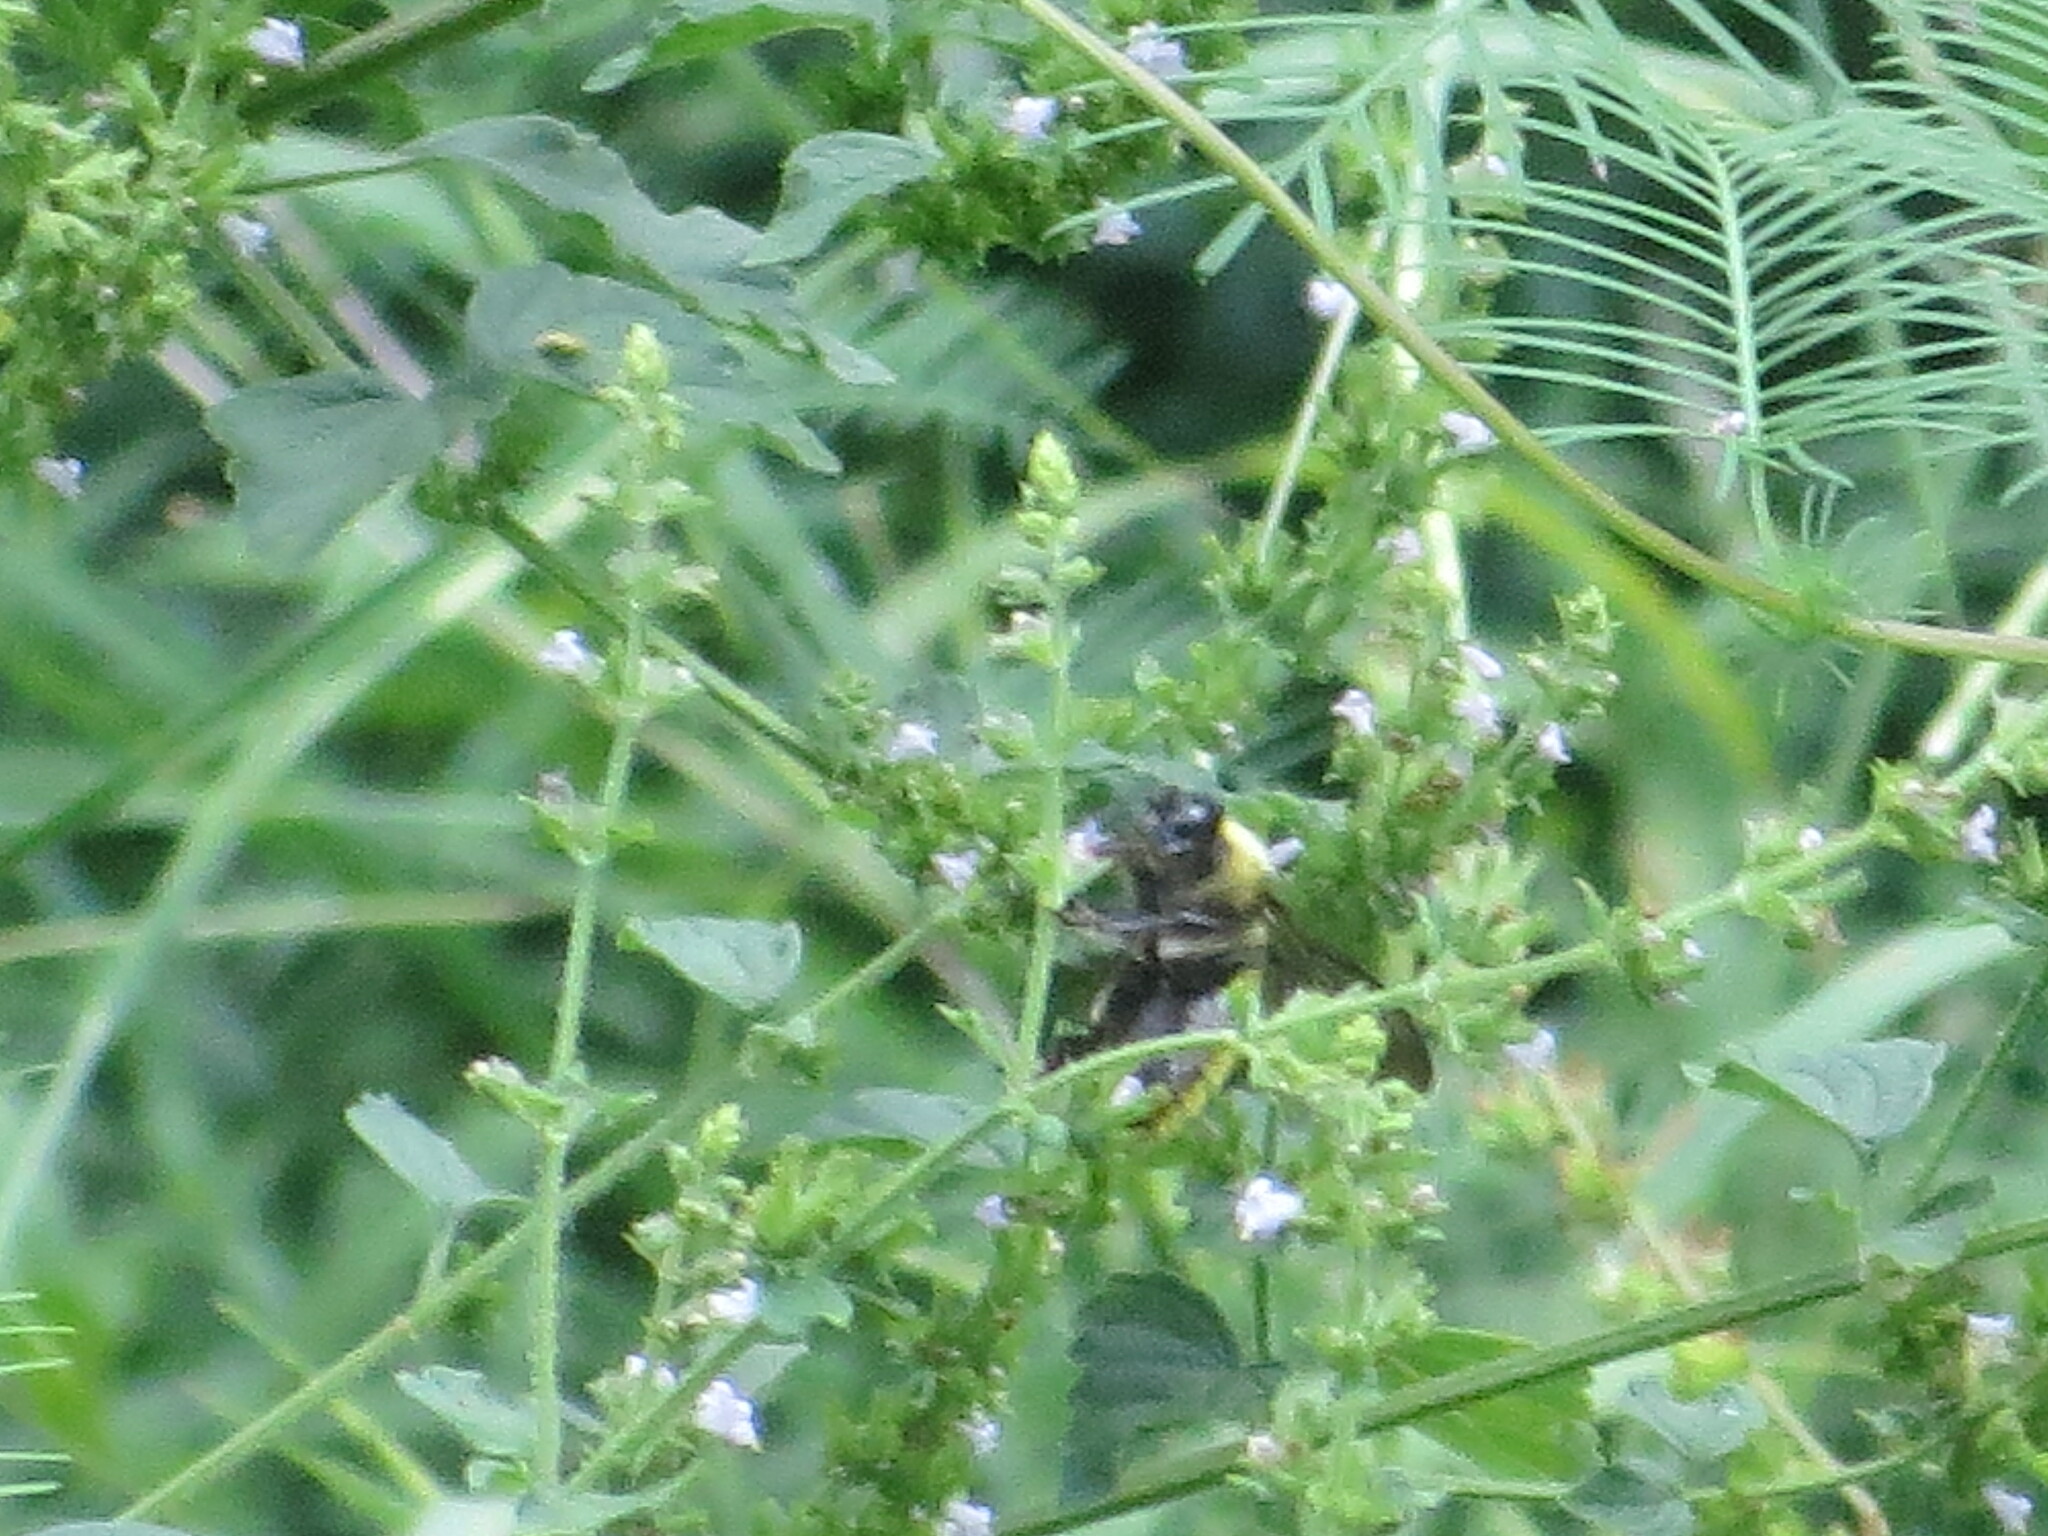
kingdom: Animalia
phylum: Arthropoda
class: Insecta
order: Hymenoptera
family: Apidae
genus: Bombus
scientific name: Bombus pensylvanicus
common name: Bumble bee
